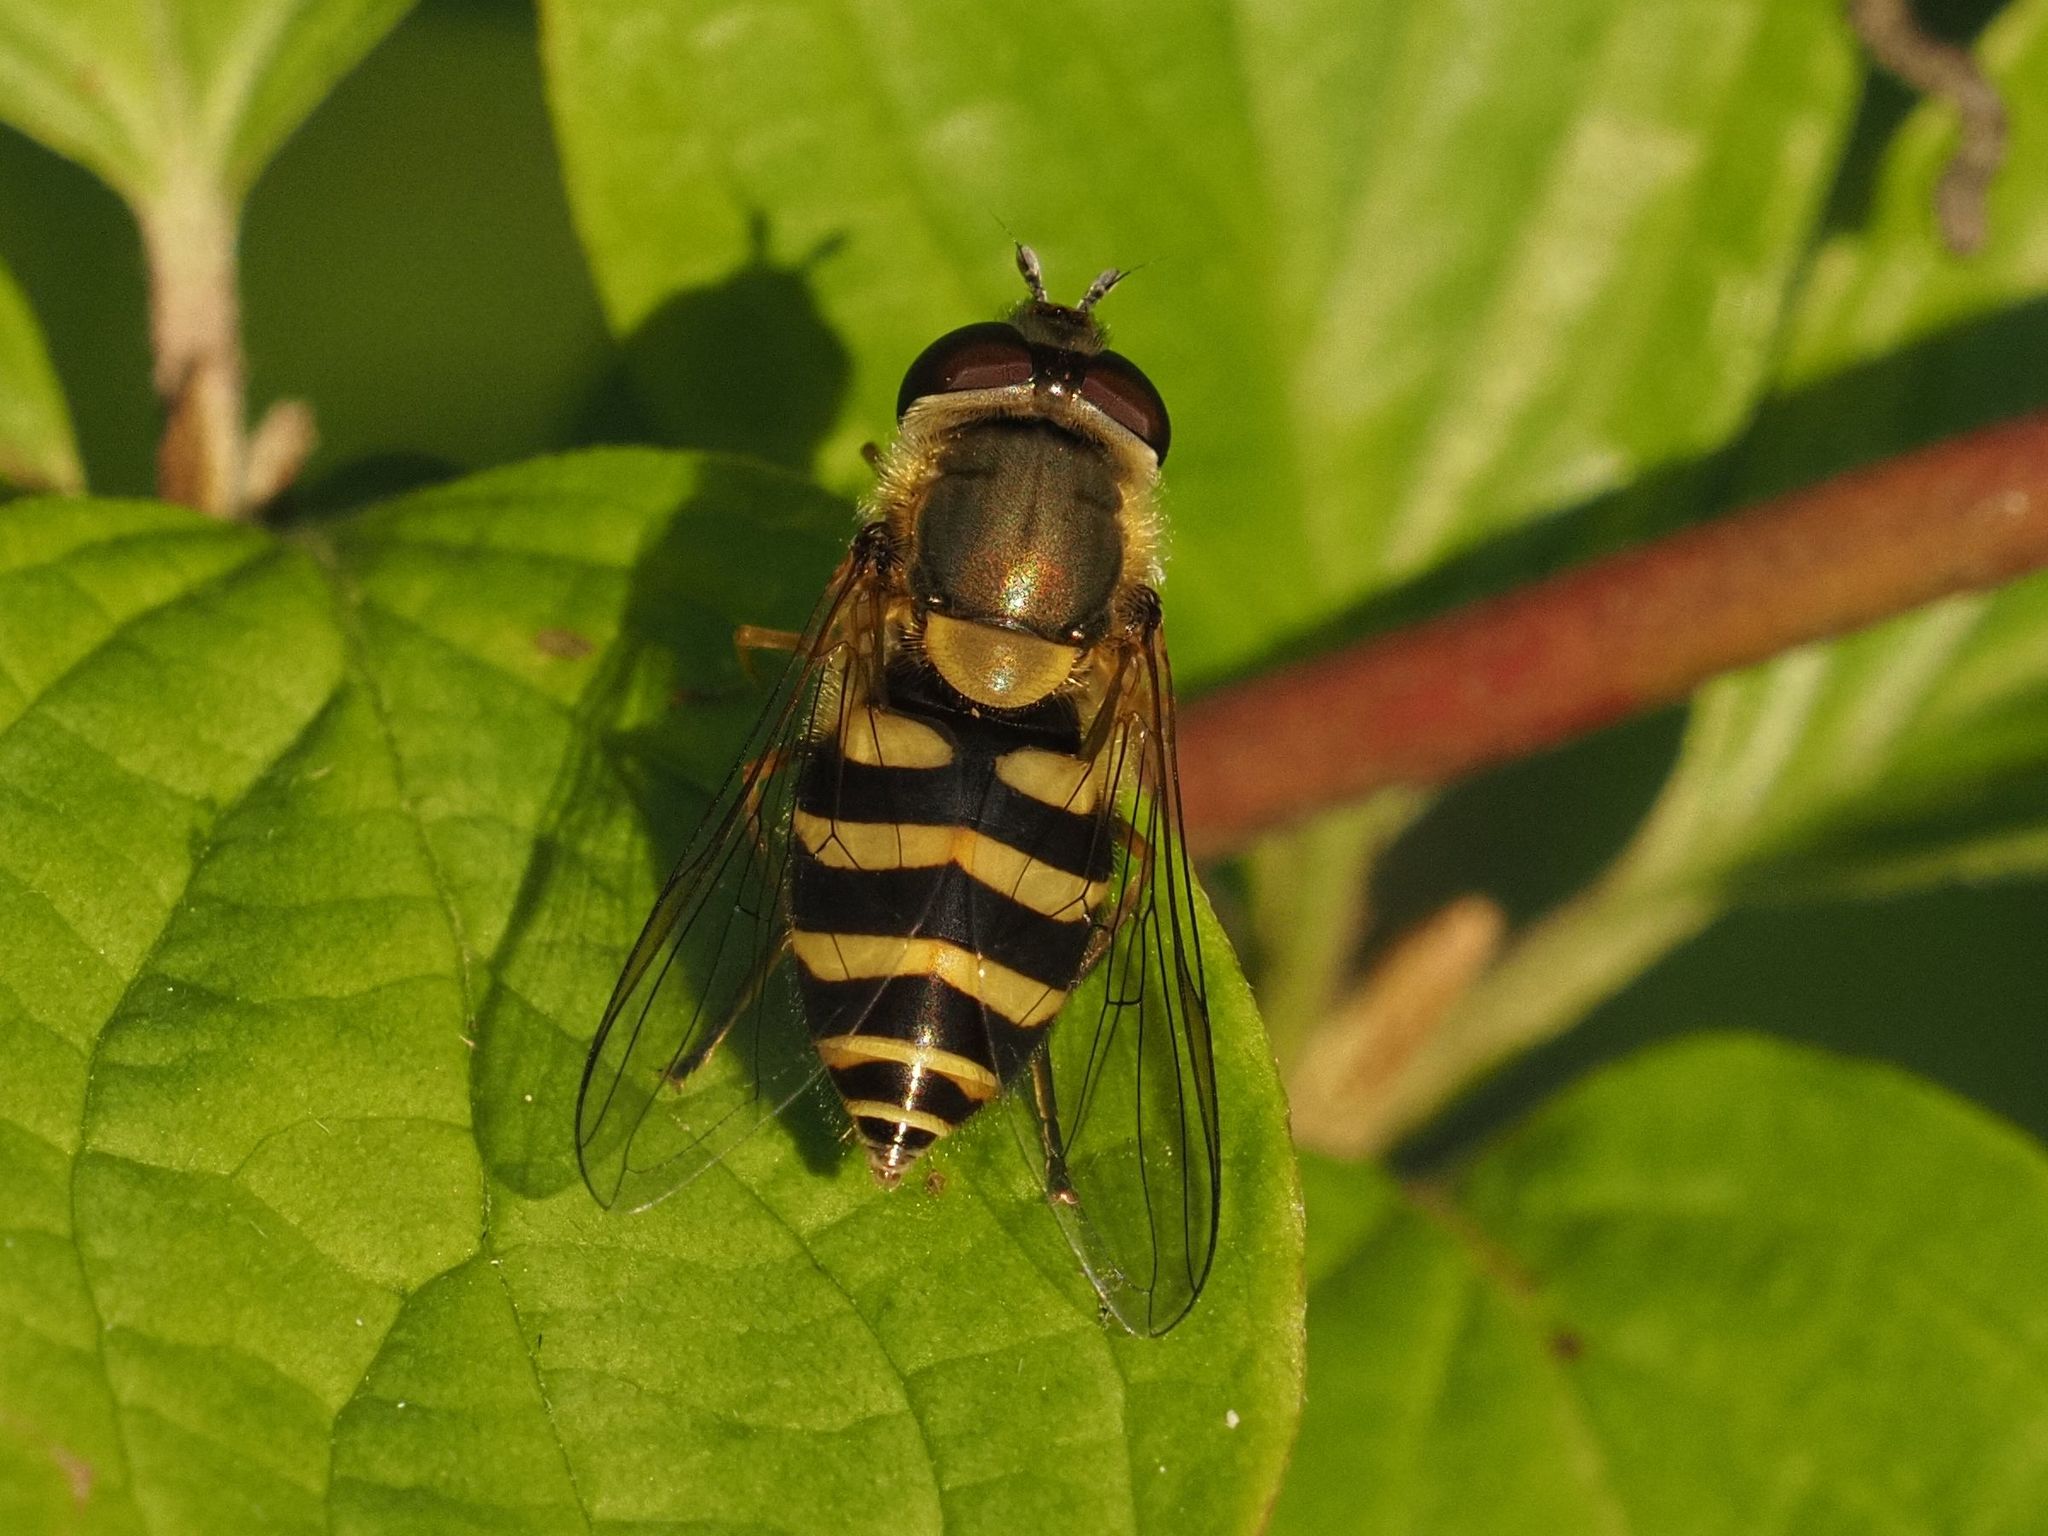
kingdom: Animalia
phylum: Arthropoda
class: Insecta
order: Diptera
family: Syrphidae
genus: Syrphus
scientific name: Syrphus
